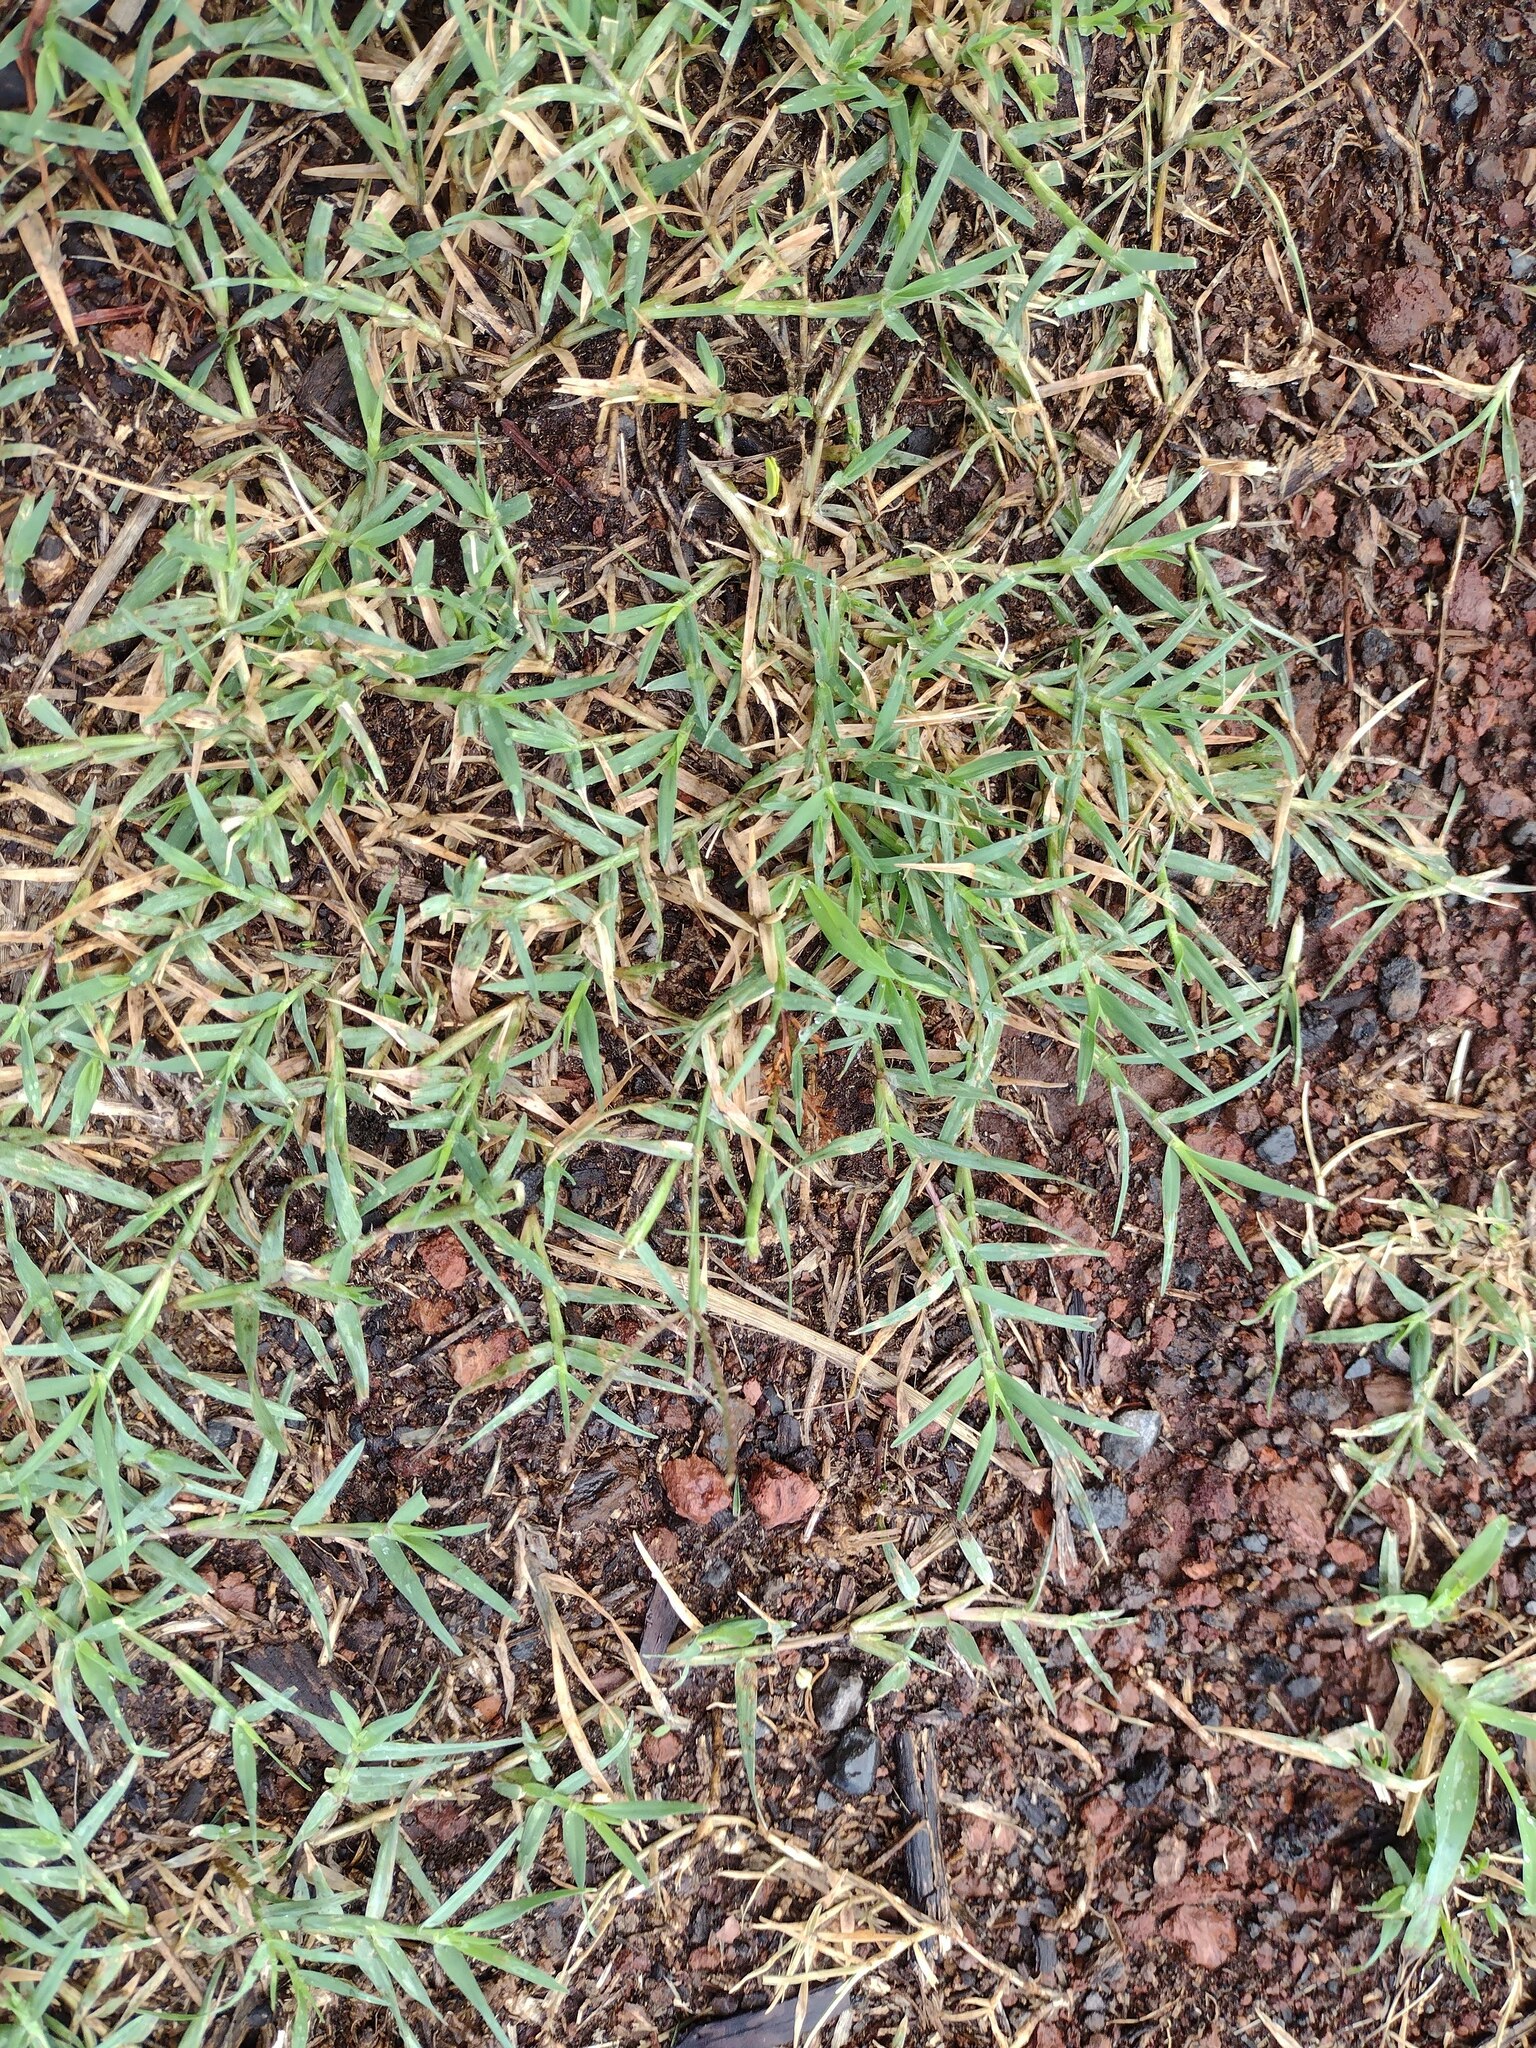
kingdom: Plantae
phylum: Tracheophyta
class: Liliopsida
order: Poales
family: Poaceae
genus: Cynodon
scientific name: Cynodon dactylon
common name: Bermuda grass
